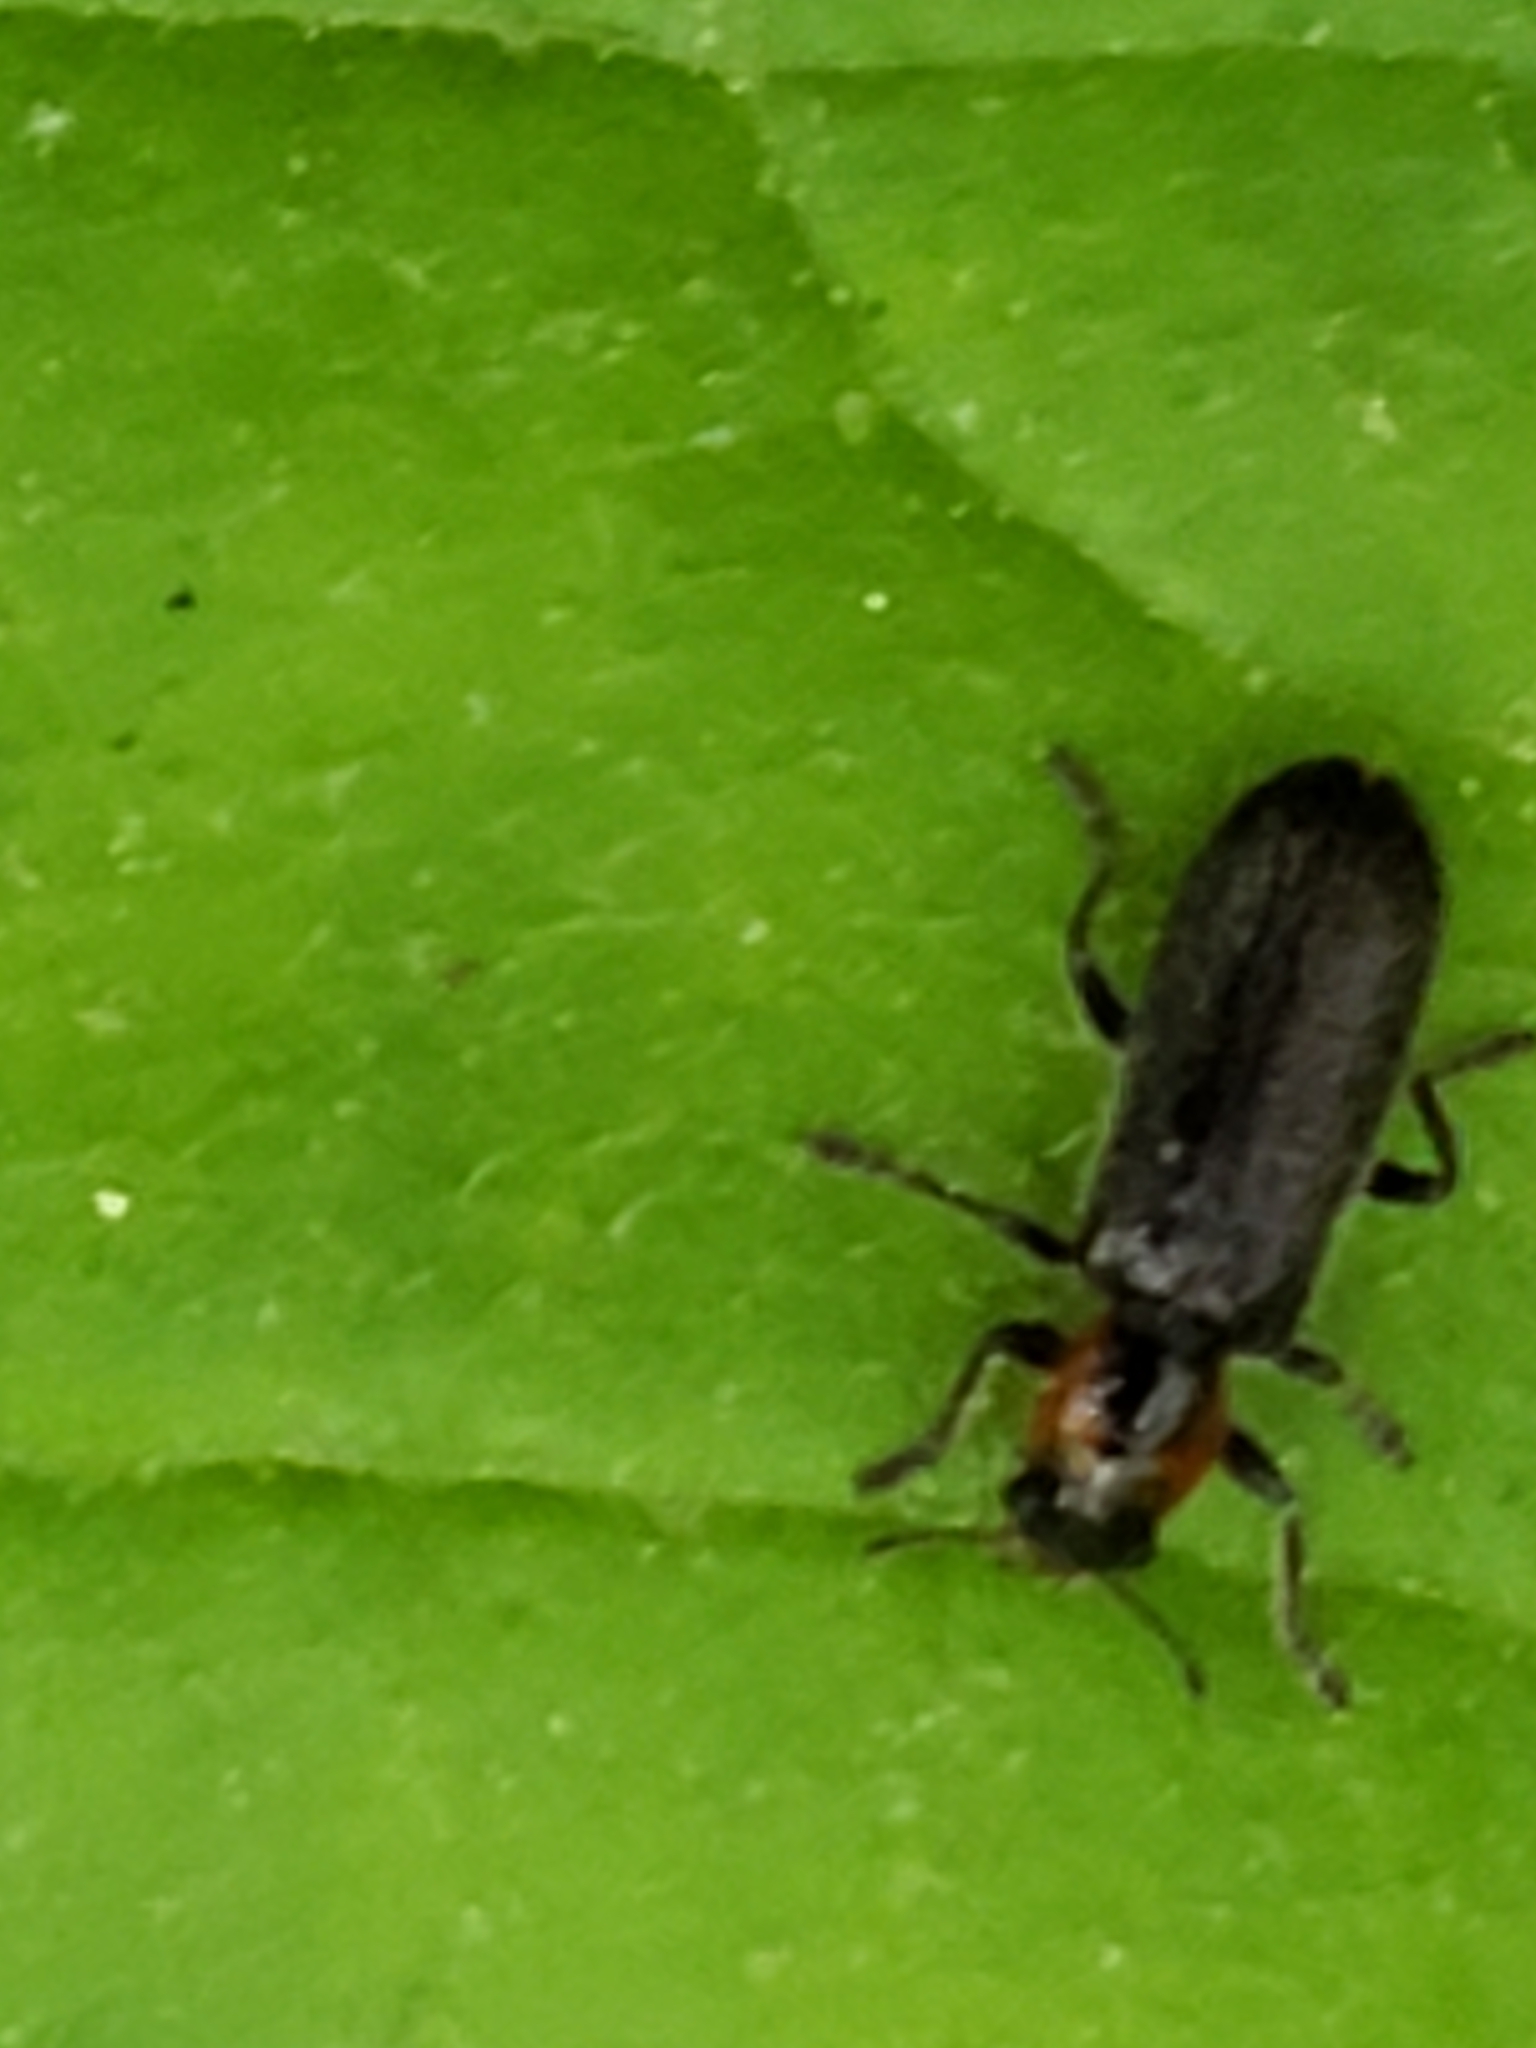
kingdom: Animalia
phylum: Arthropoda
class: Insecta
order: Coleoptera
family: Cleridae
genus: Placopterus
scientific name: Placopterus thoracicus
